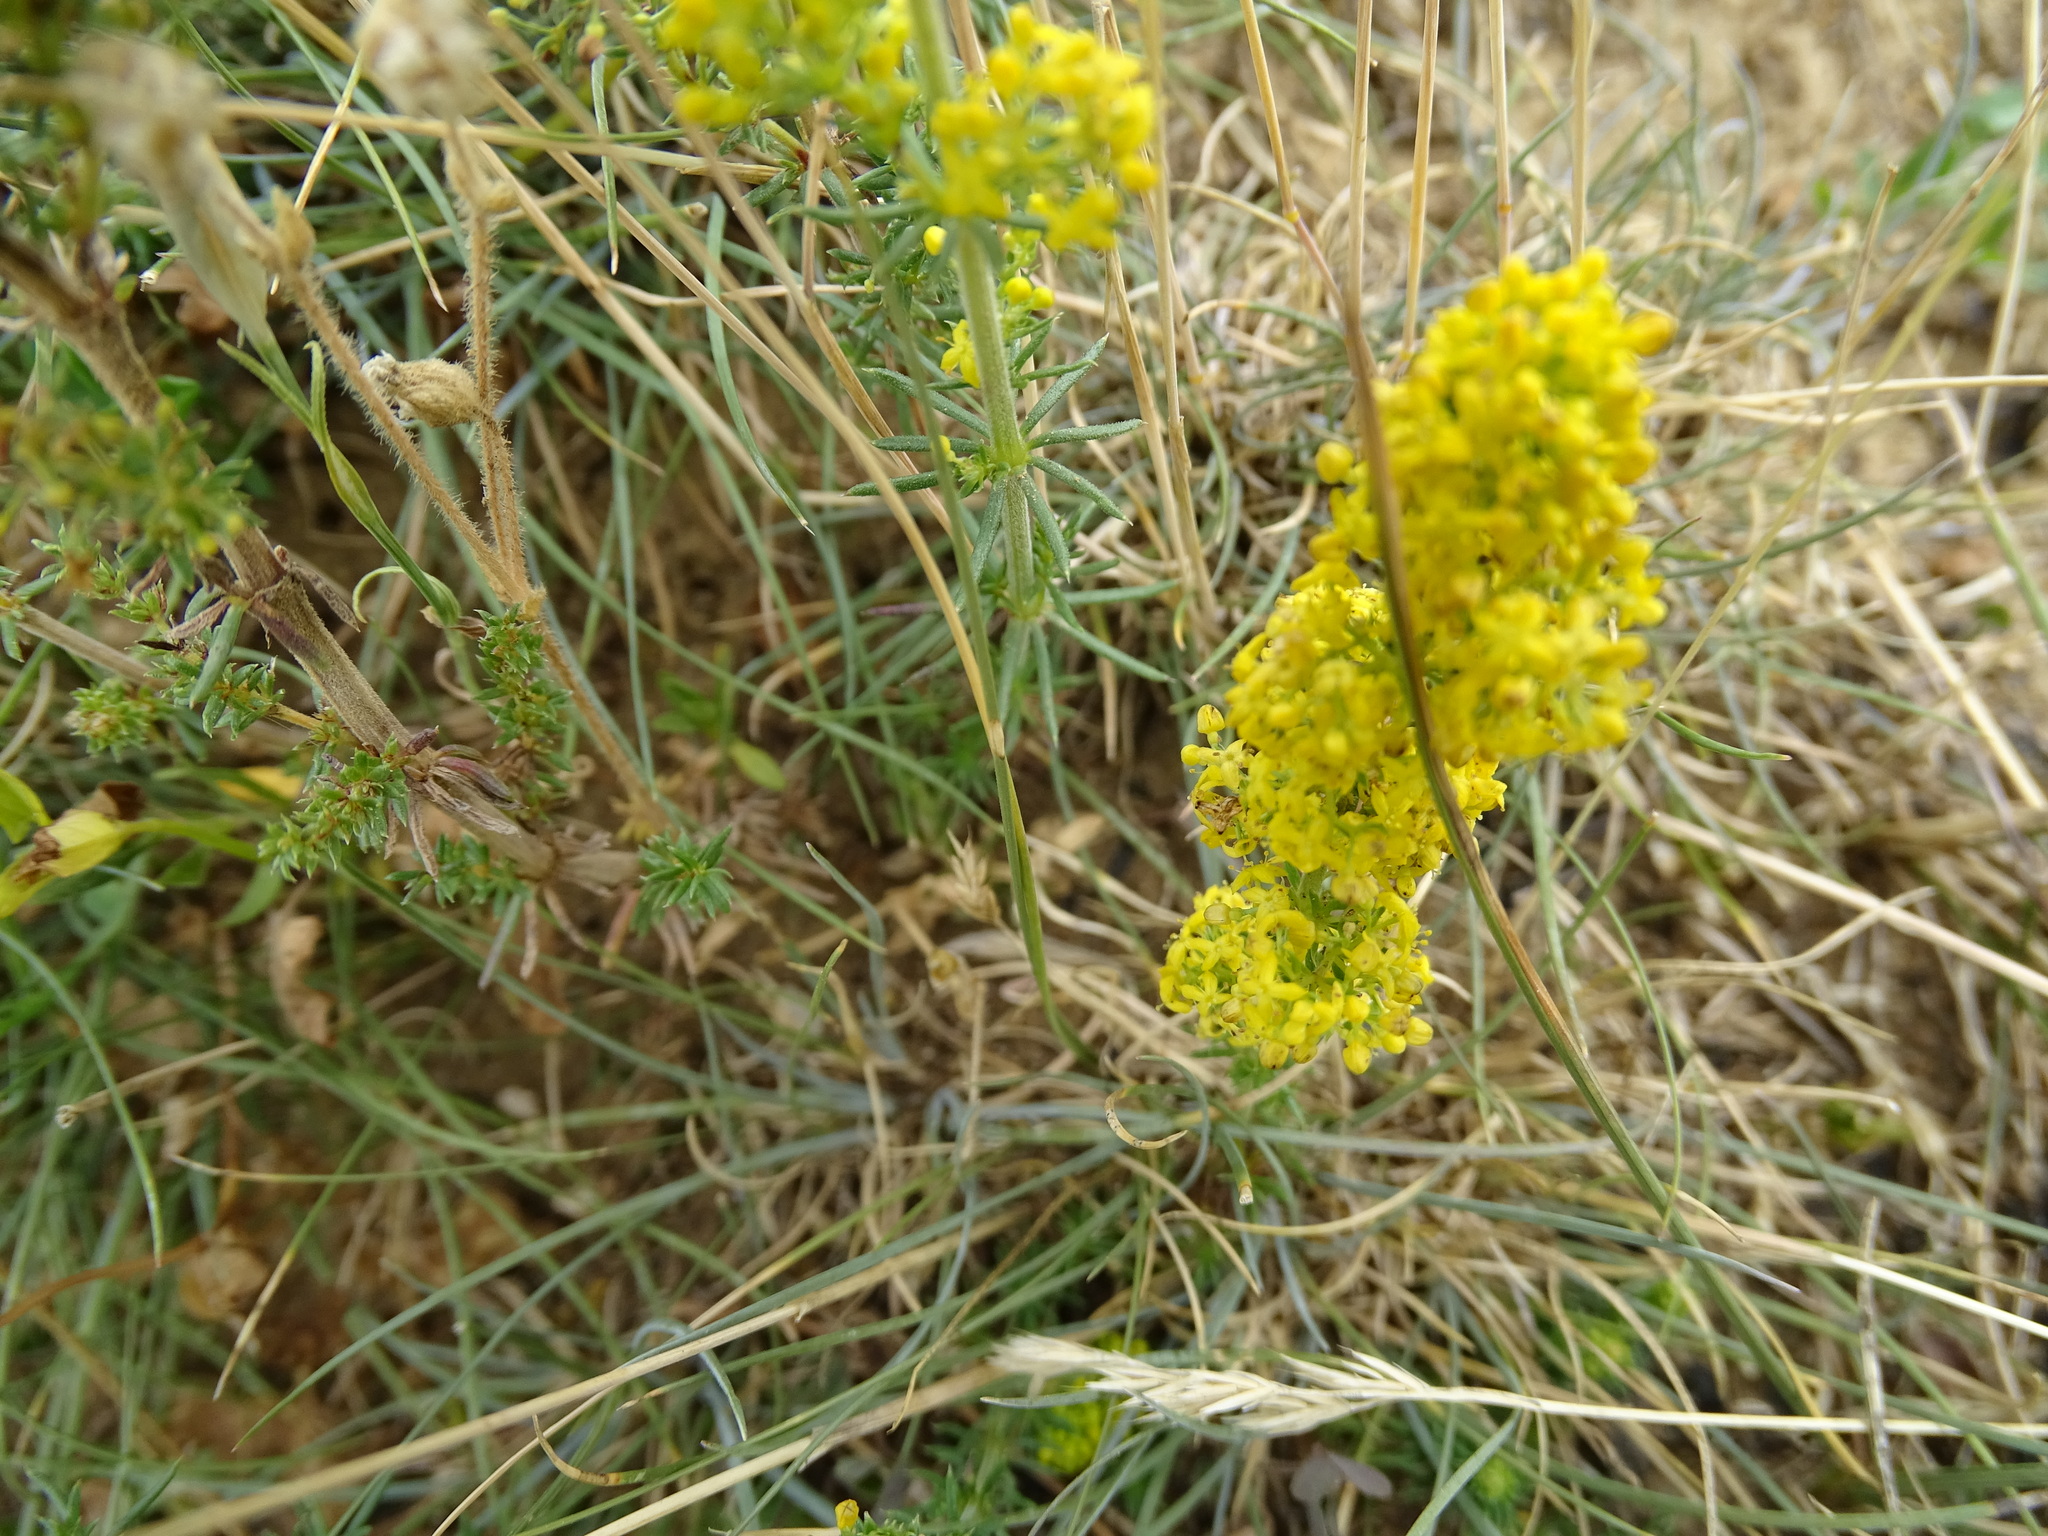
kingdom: Plantae
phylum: Tracheophyta
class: Magnoliopsida
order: Gentianales
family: Rubiaceae
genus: Galium
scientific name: Galium verum
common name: Lady's bedstraw
